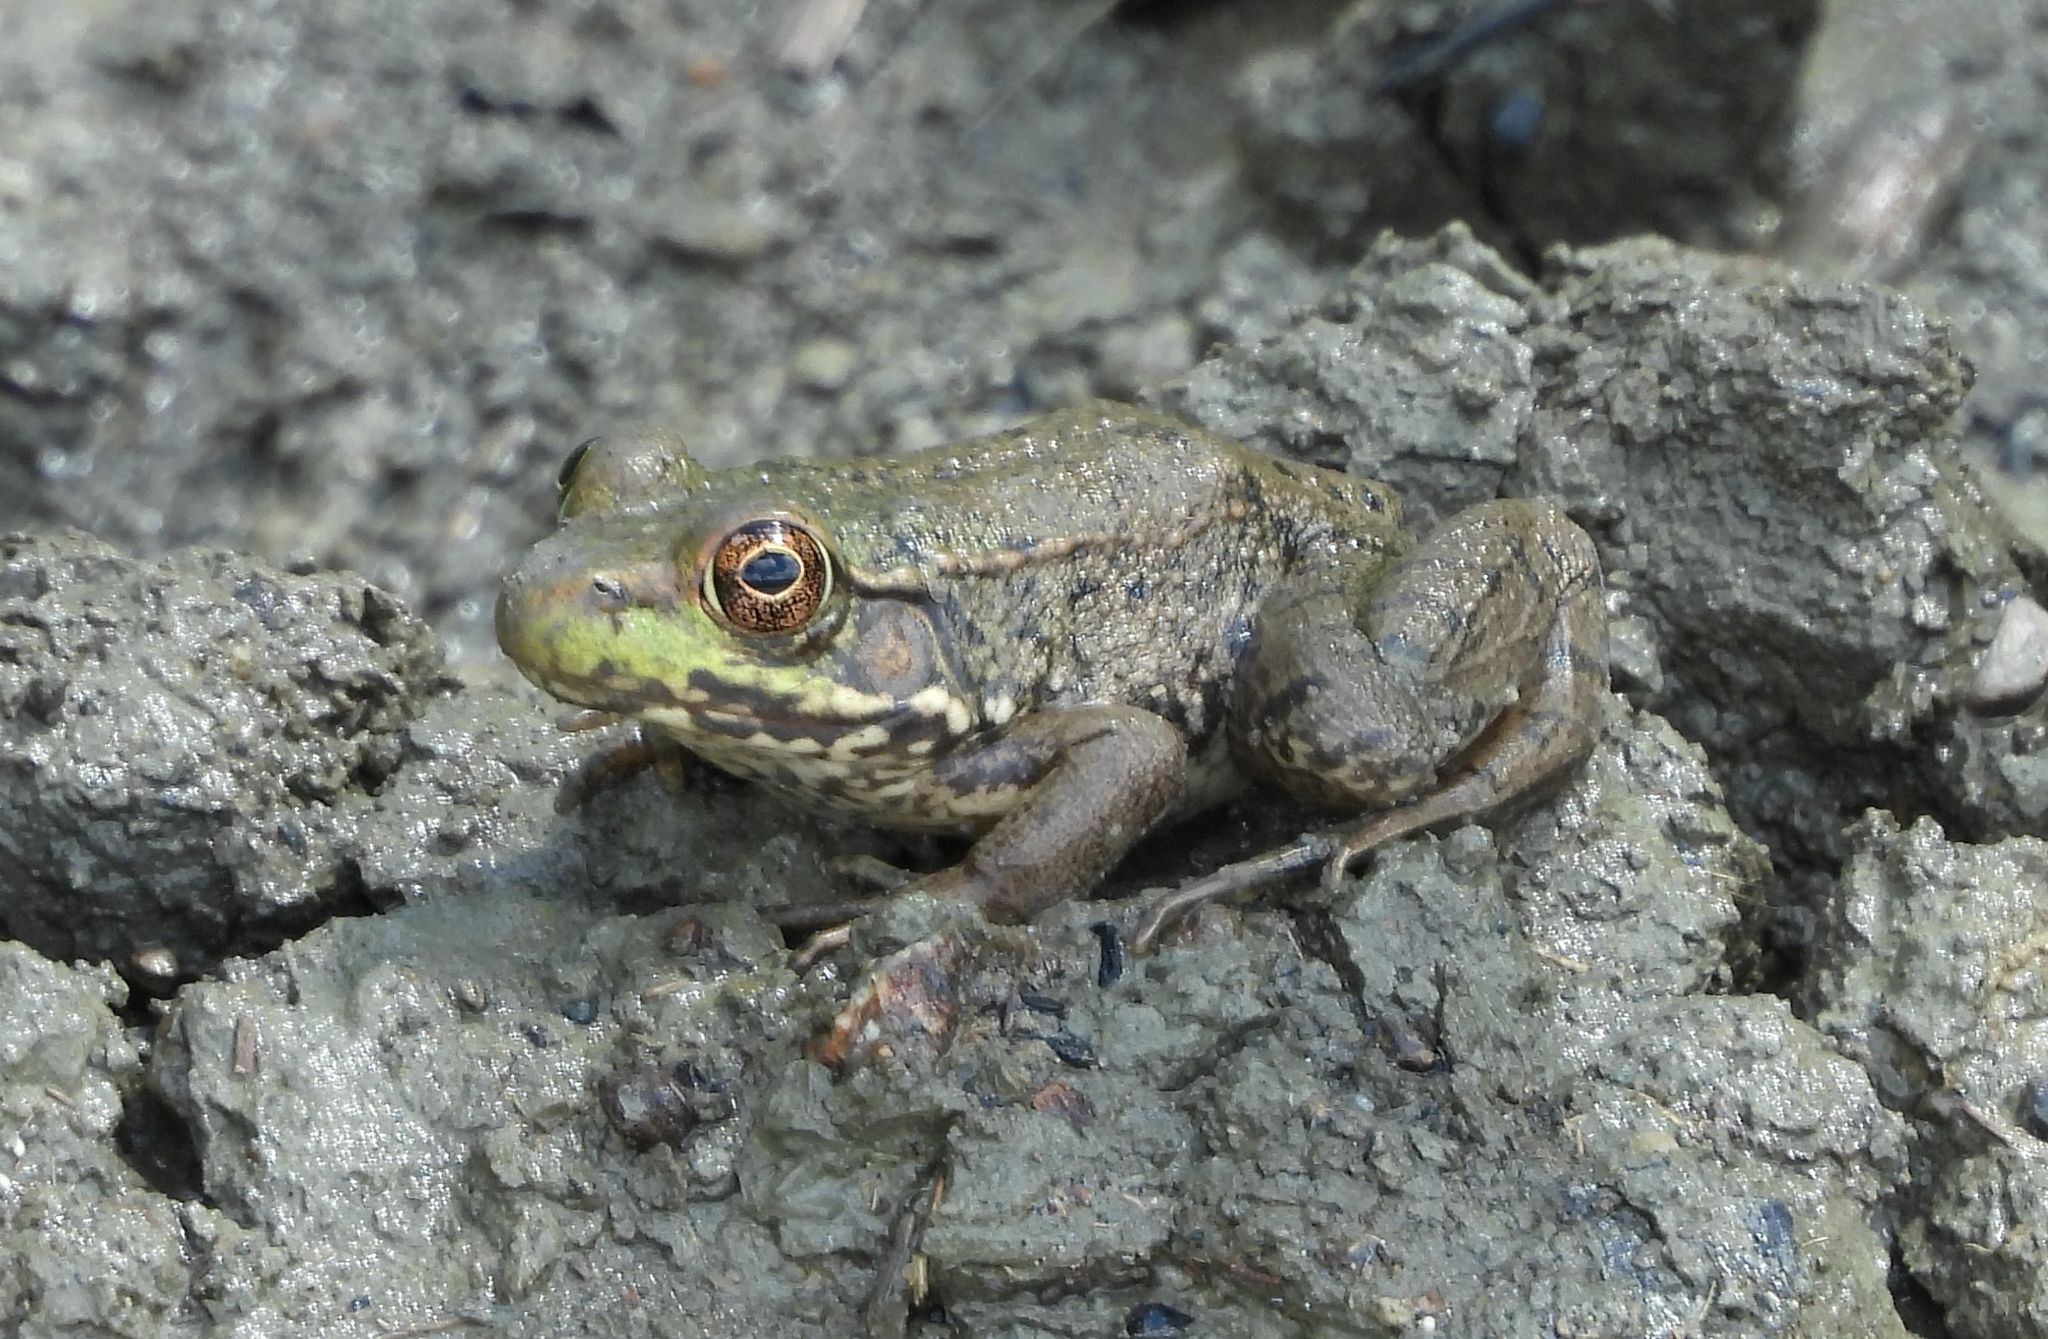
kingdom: Animalia
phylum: Chordata
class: Amphibia
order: Anura
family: Ranidae
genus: Lithobates
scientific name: Lithobates clamitans
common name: Green frog
